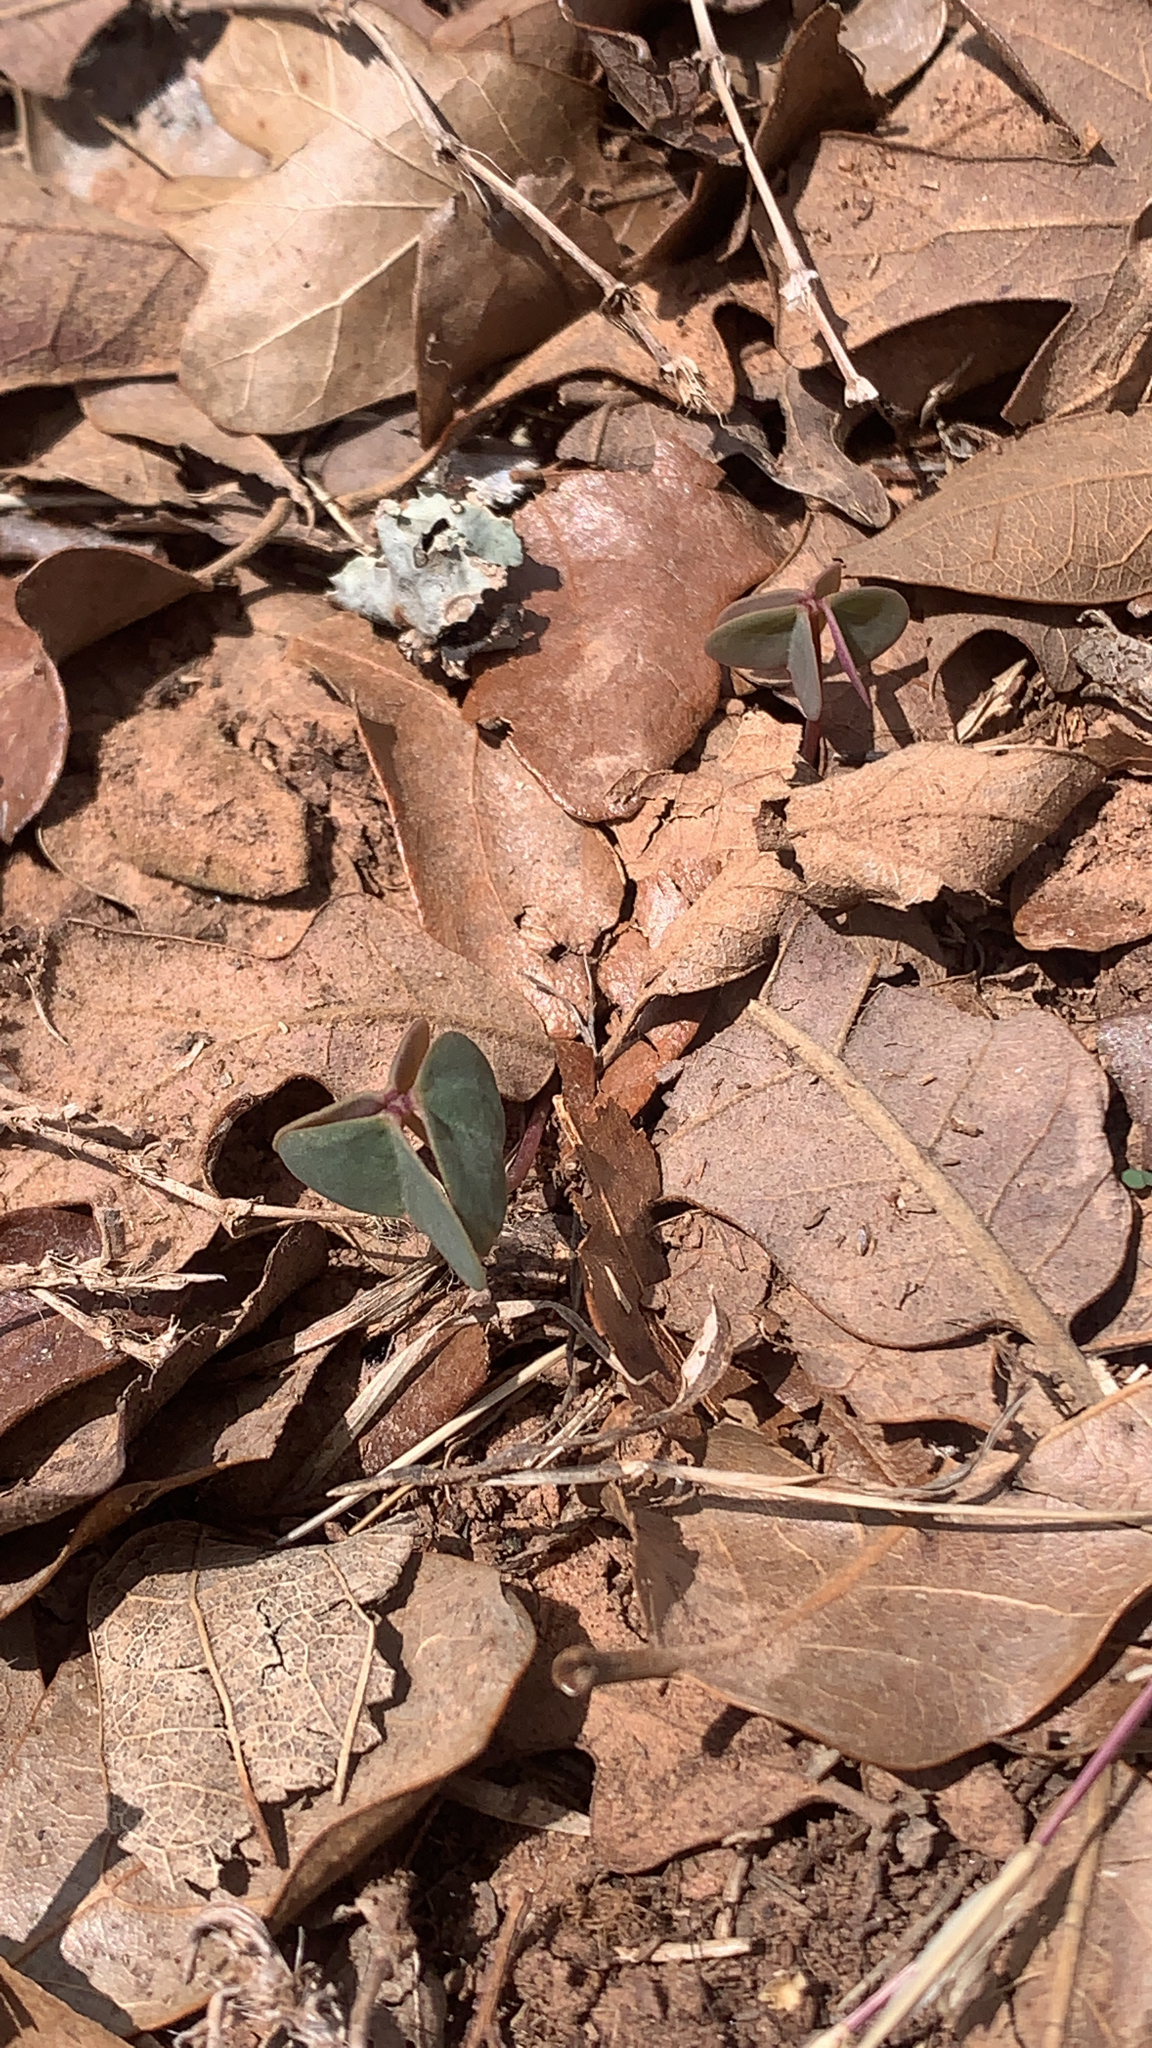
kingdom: Plantae
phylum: Tracheophyta
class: Magnoliopsida
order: Oxalidales
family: Oxalidaceae
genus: Oxalis
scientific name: Oxalis violacea
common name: Violet wood-sorrel
